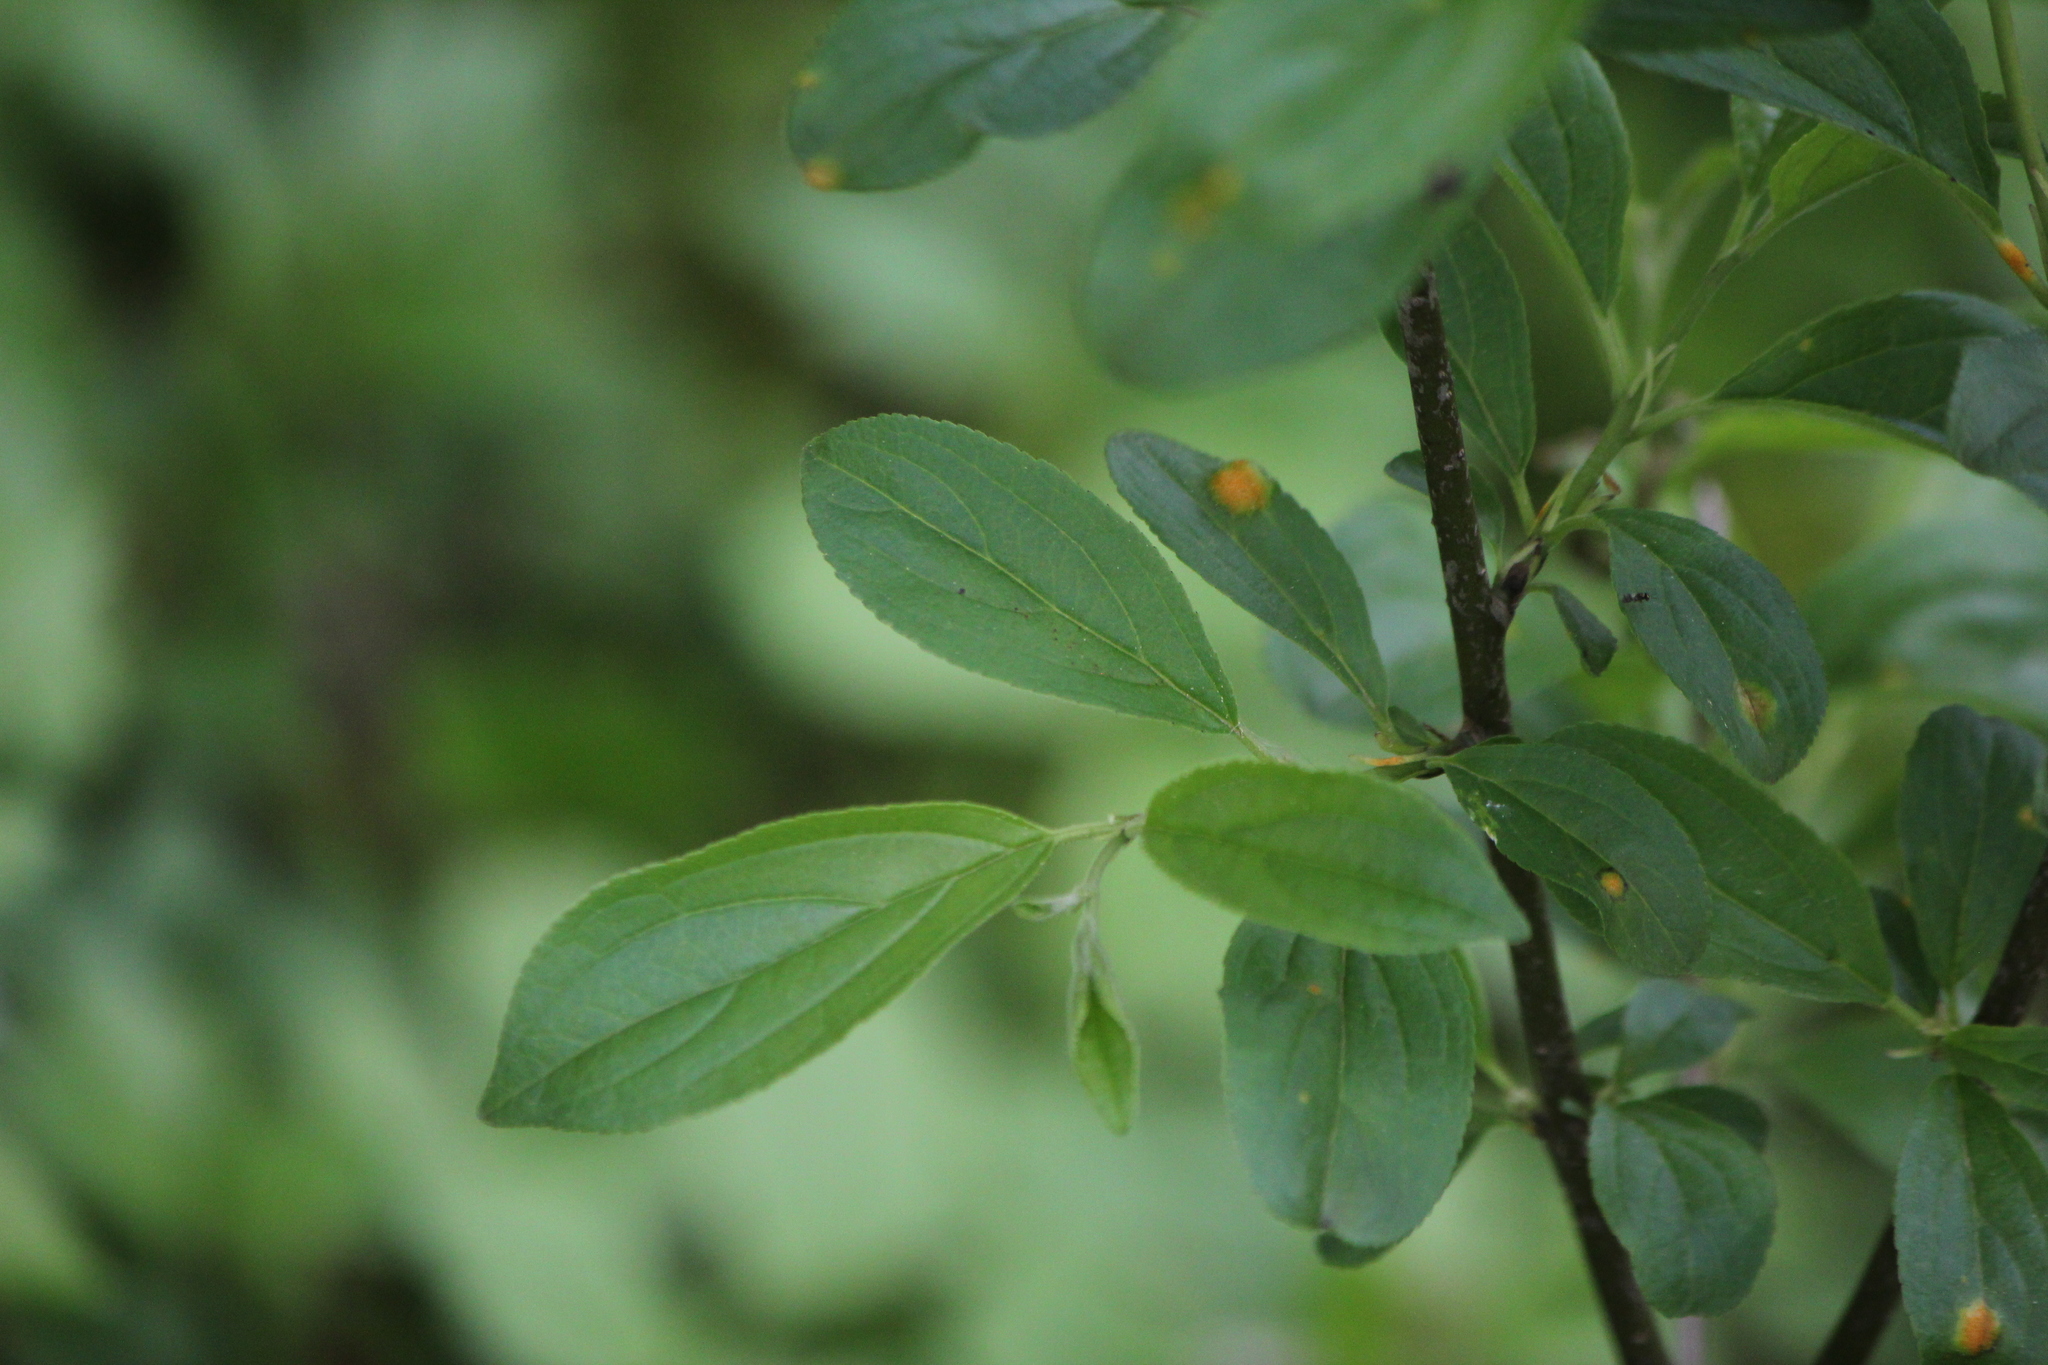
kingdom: Plantae
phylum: Tracheophyta
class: Magnoliopsida
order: Rosales
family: Rhamnaceae
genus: Rhamnus
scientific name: Rhamnus cathartica
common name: Common buckthorn
